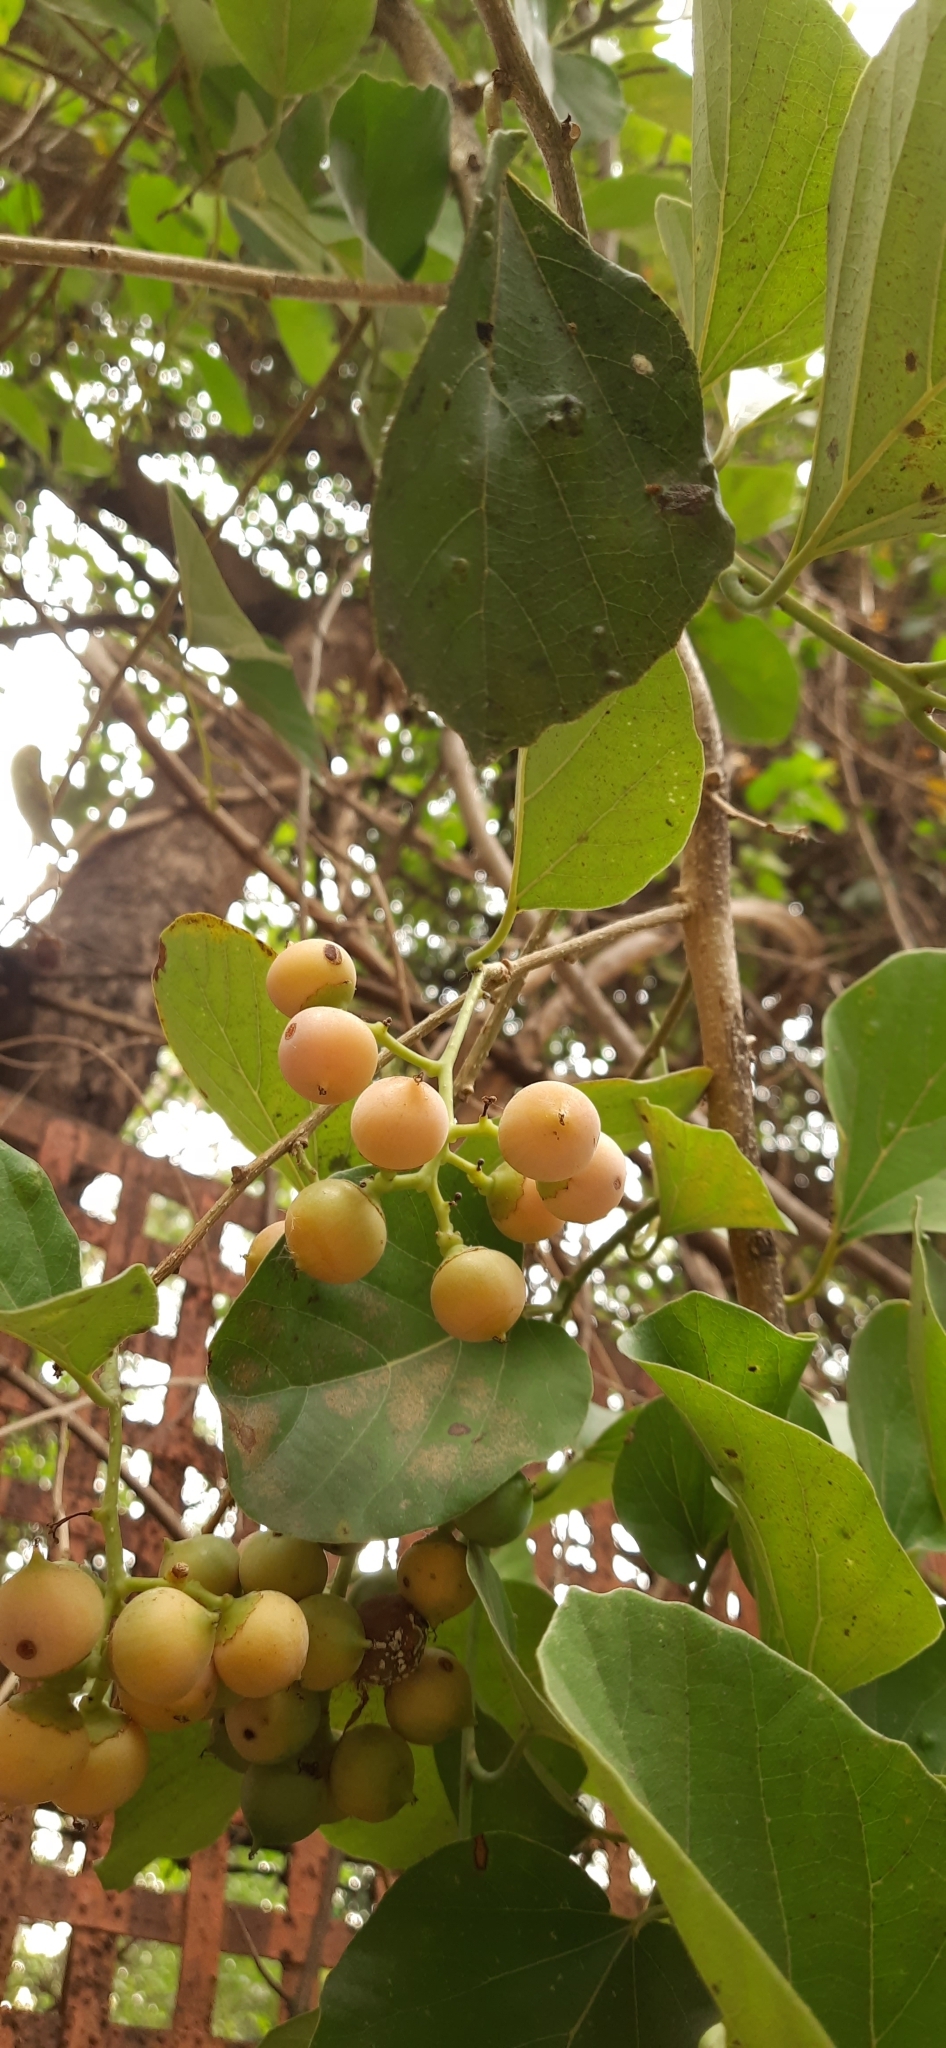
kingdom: Plantae
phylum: Tracheophyta
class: Magnoliopsida
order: Boraginales
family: Cordiaceae
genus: Cordia
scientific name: Cordia myxa
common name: Assyrian plum
